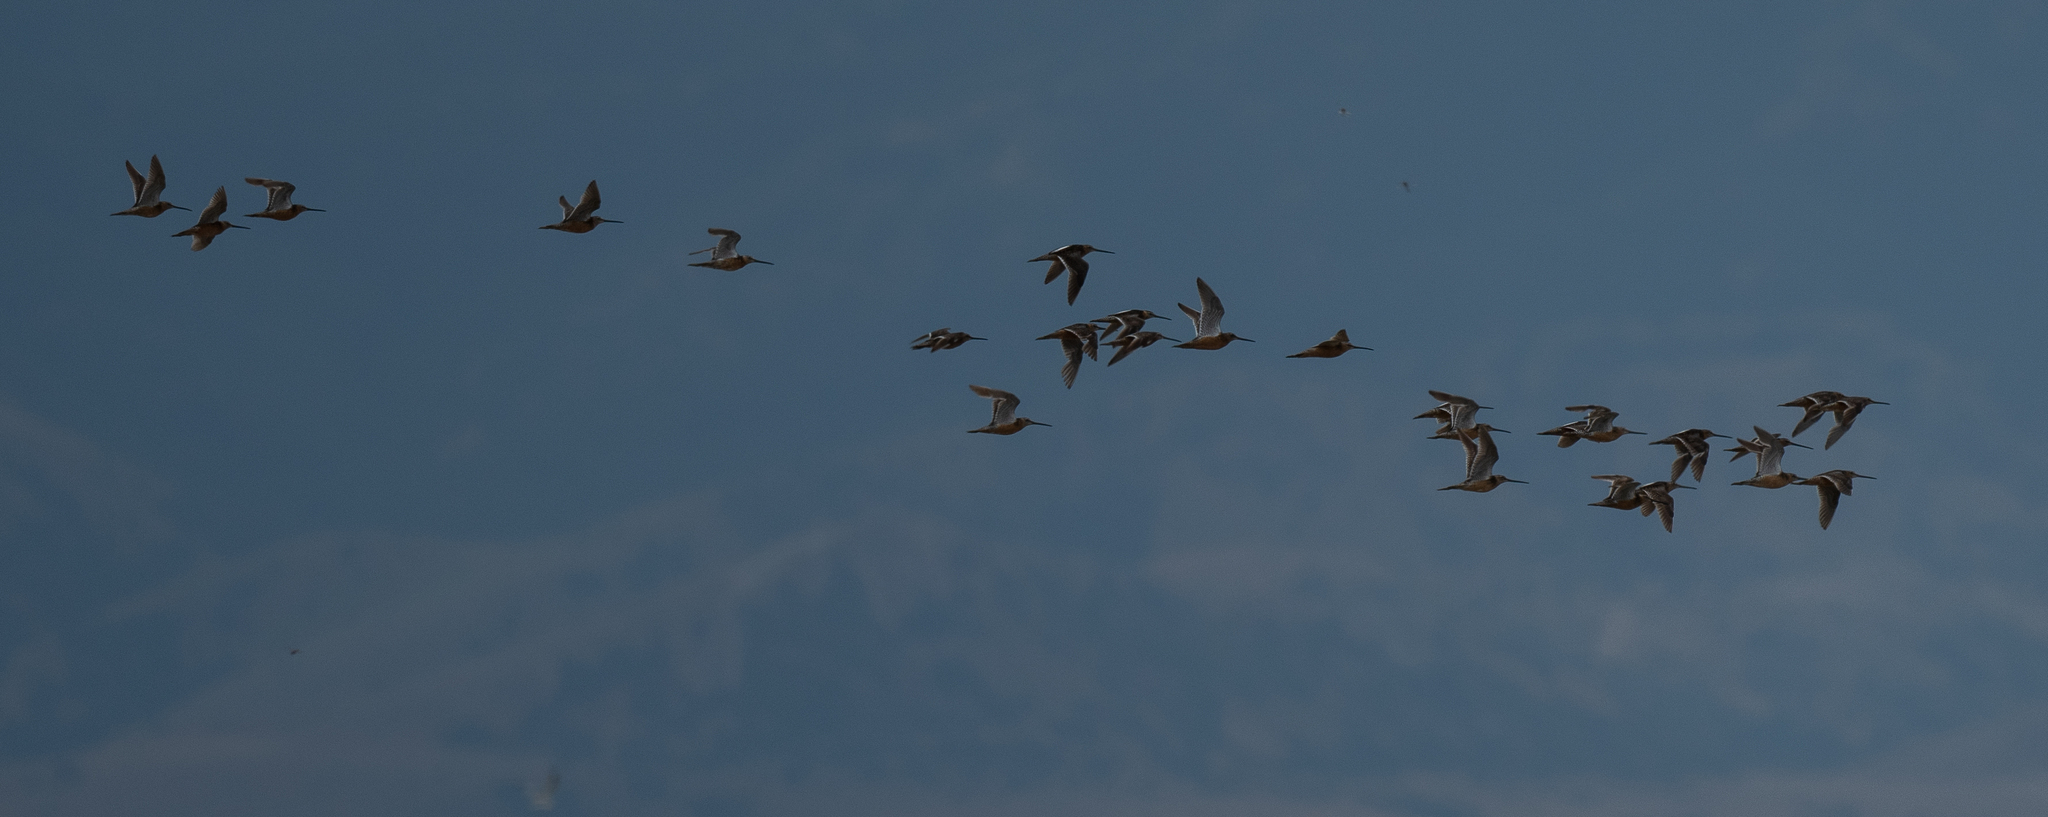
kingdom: Animalia
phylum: Chordata
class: Aves
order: Charadriiformes
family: Scolopacidae
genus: Limnodromus
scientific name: Limnodromus scolopaceus
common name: Long-billed dowitcher
